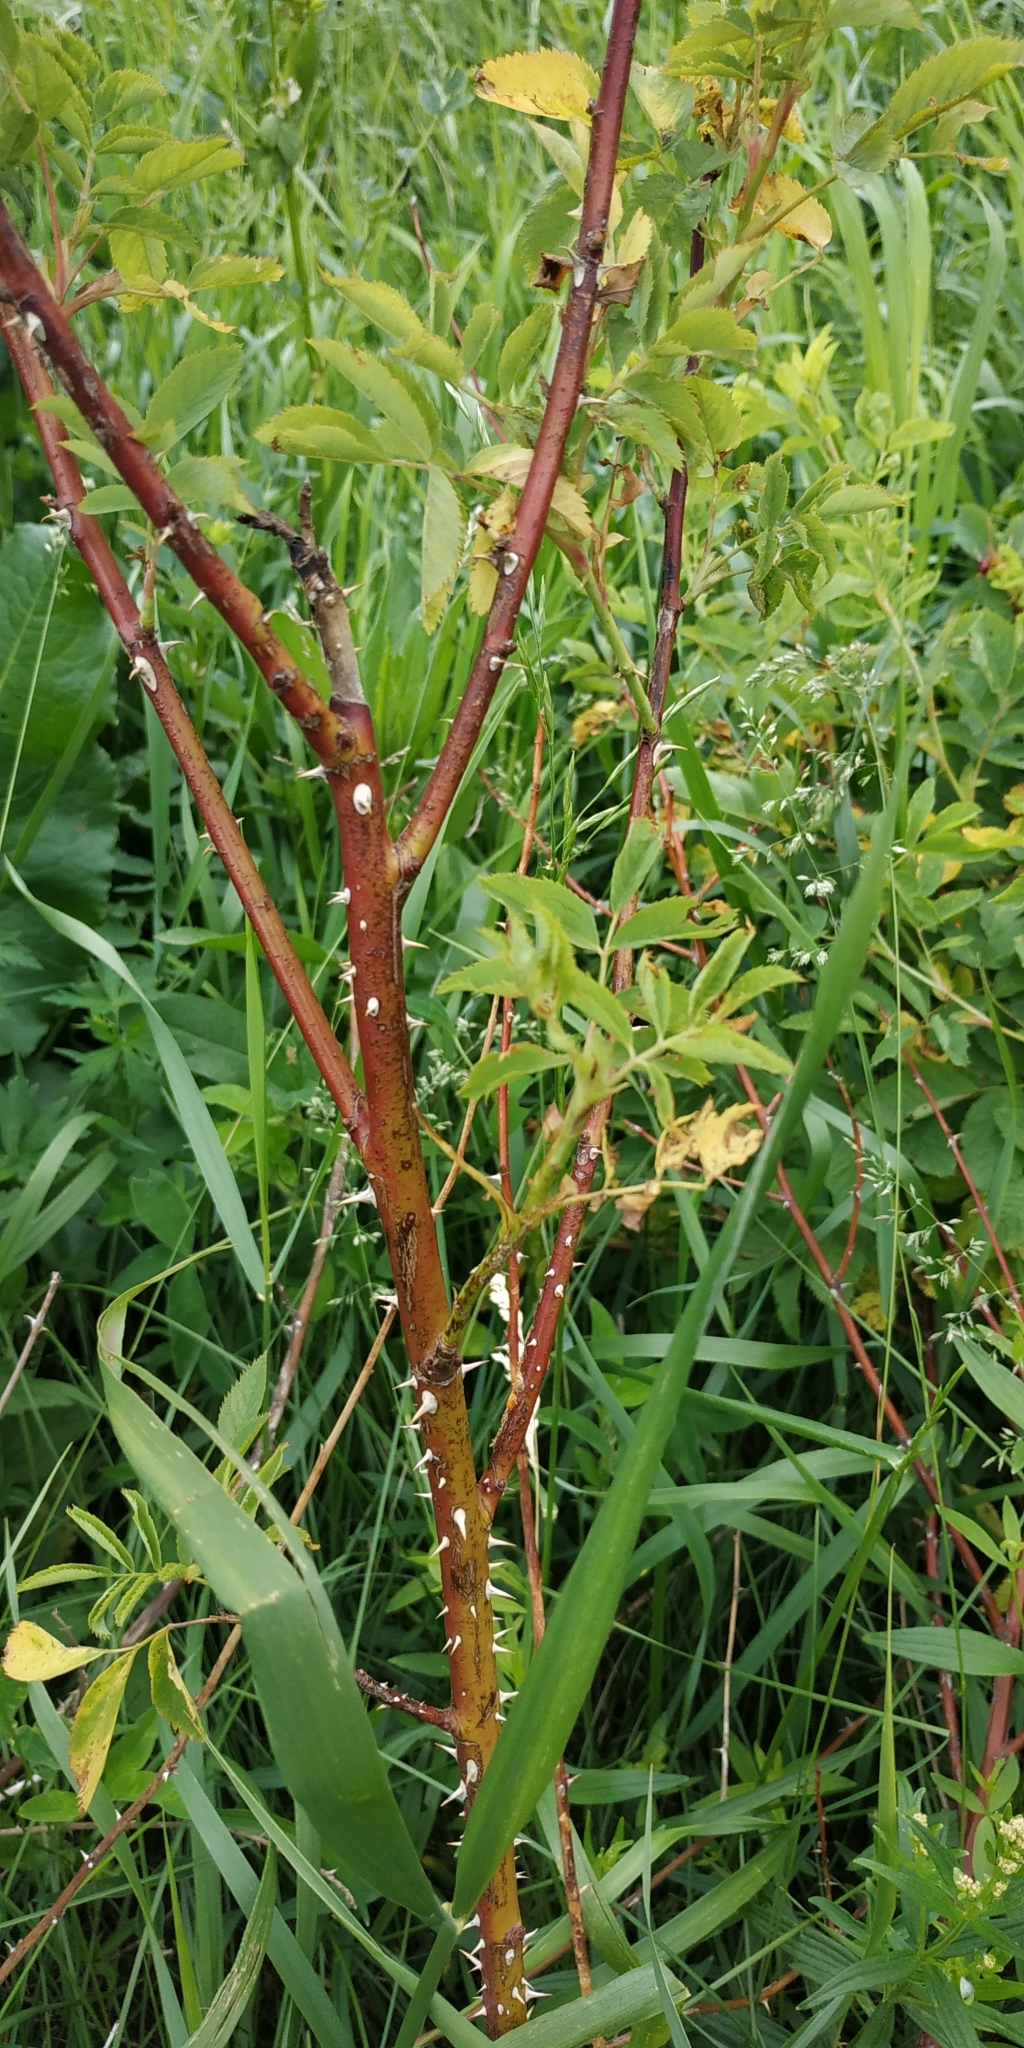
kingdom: Plantae
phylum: Tracheophyta
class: Magnoliopsida
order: Rosales
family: Rosaceae
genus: Rosa
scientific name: Rosa glabrifolia
